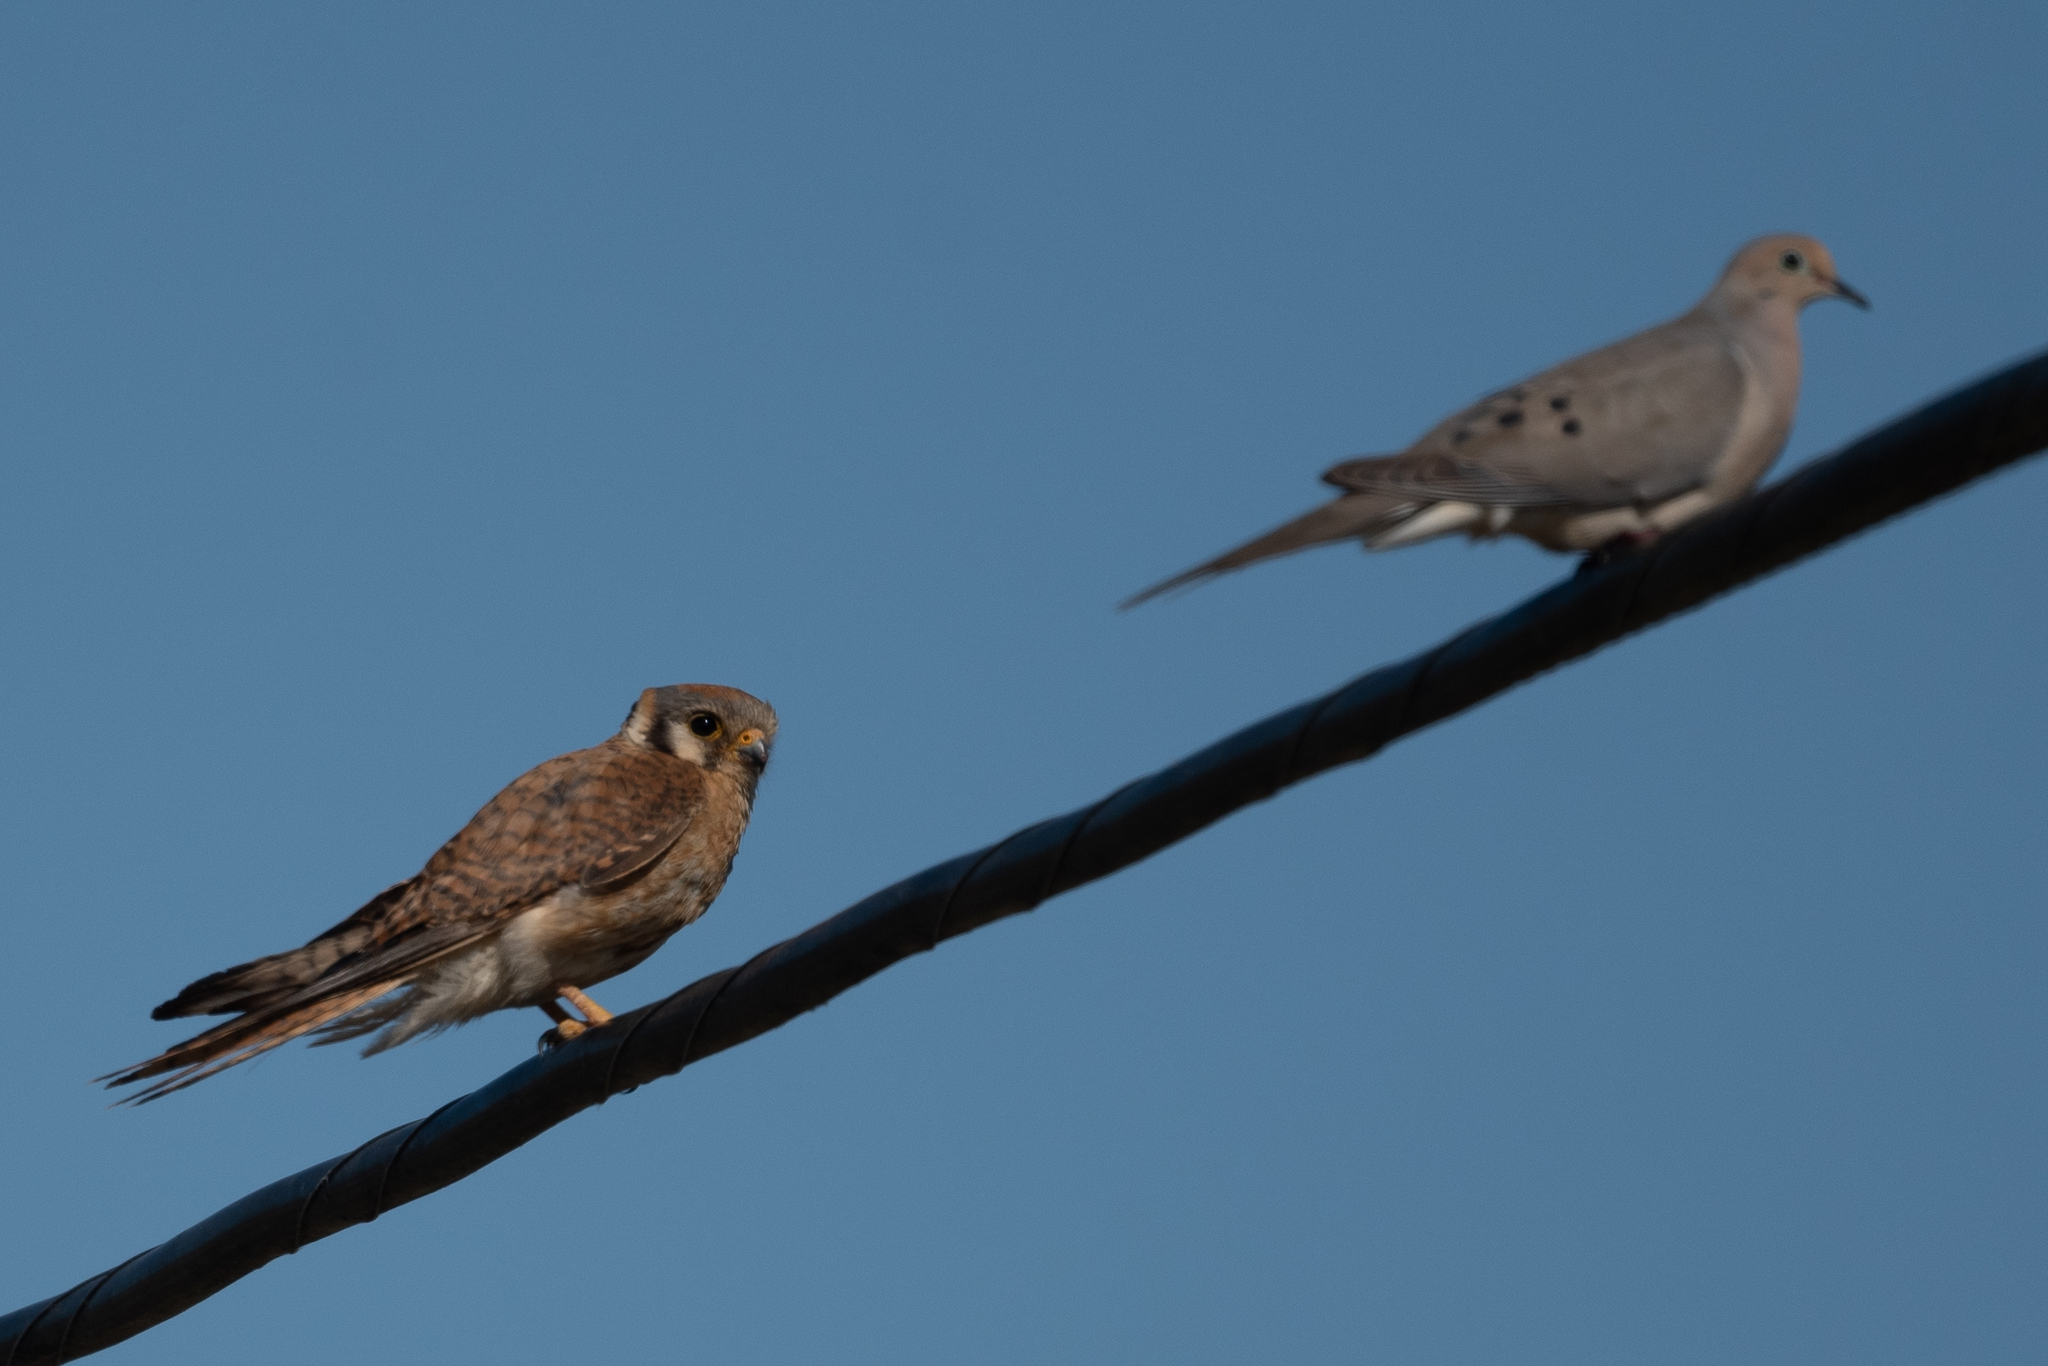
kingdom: Animalia
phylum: Chordata
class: Aves
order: Falconiformes
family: Falconidae
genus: Falco
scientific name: Falco sparverius
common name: American kestrel
